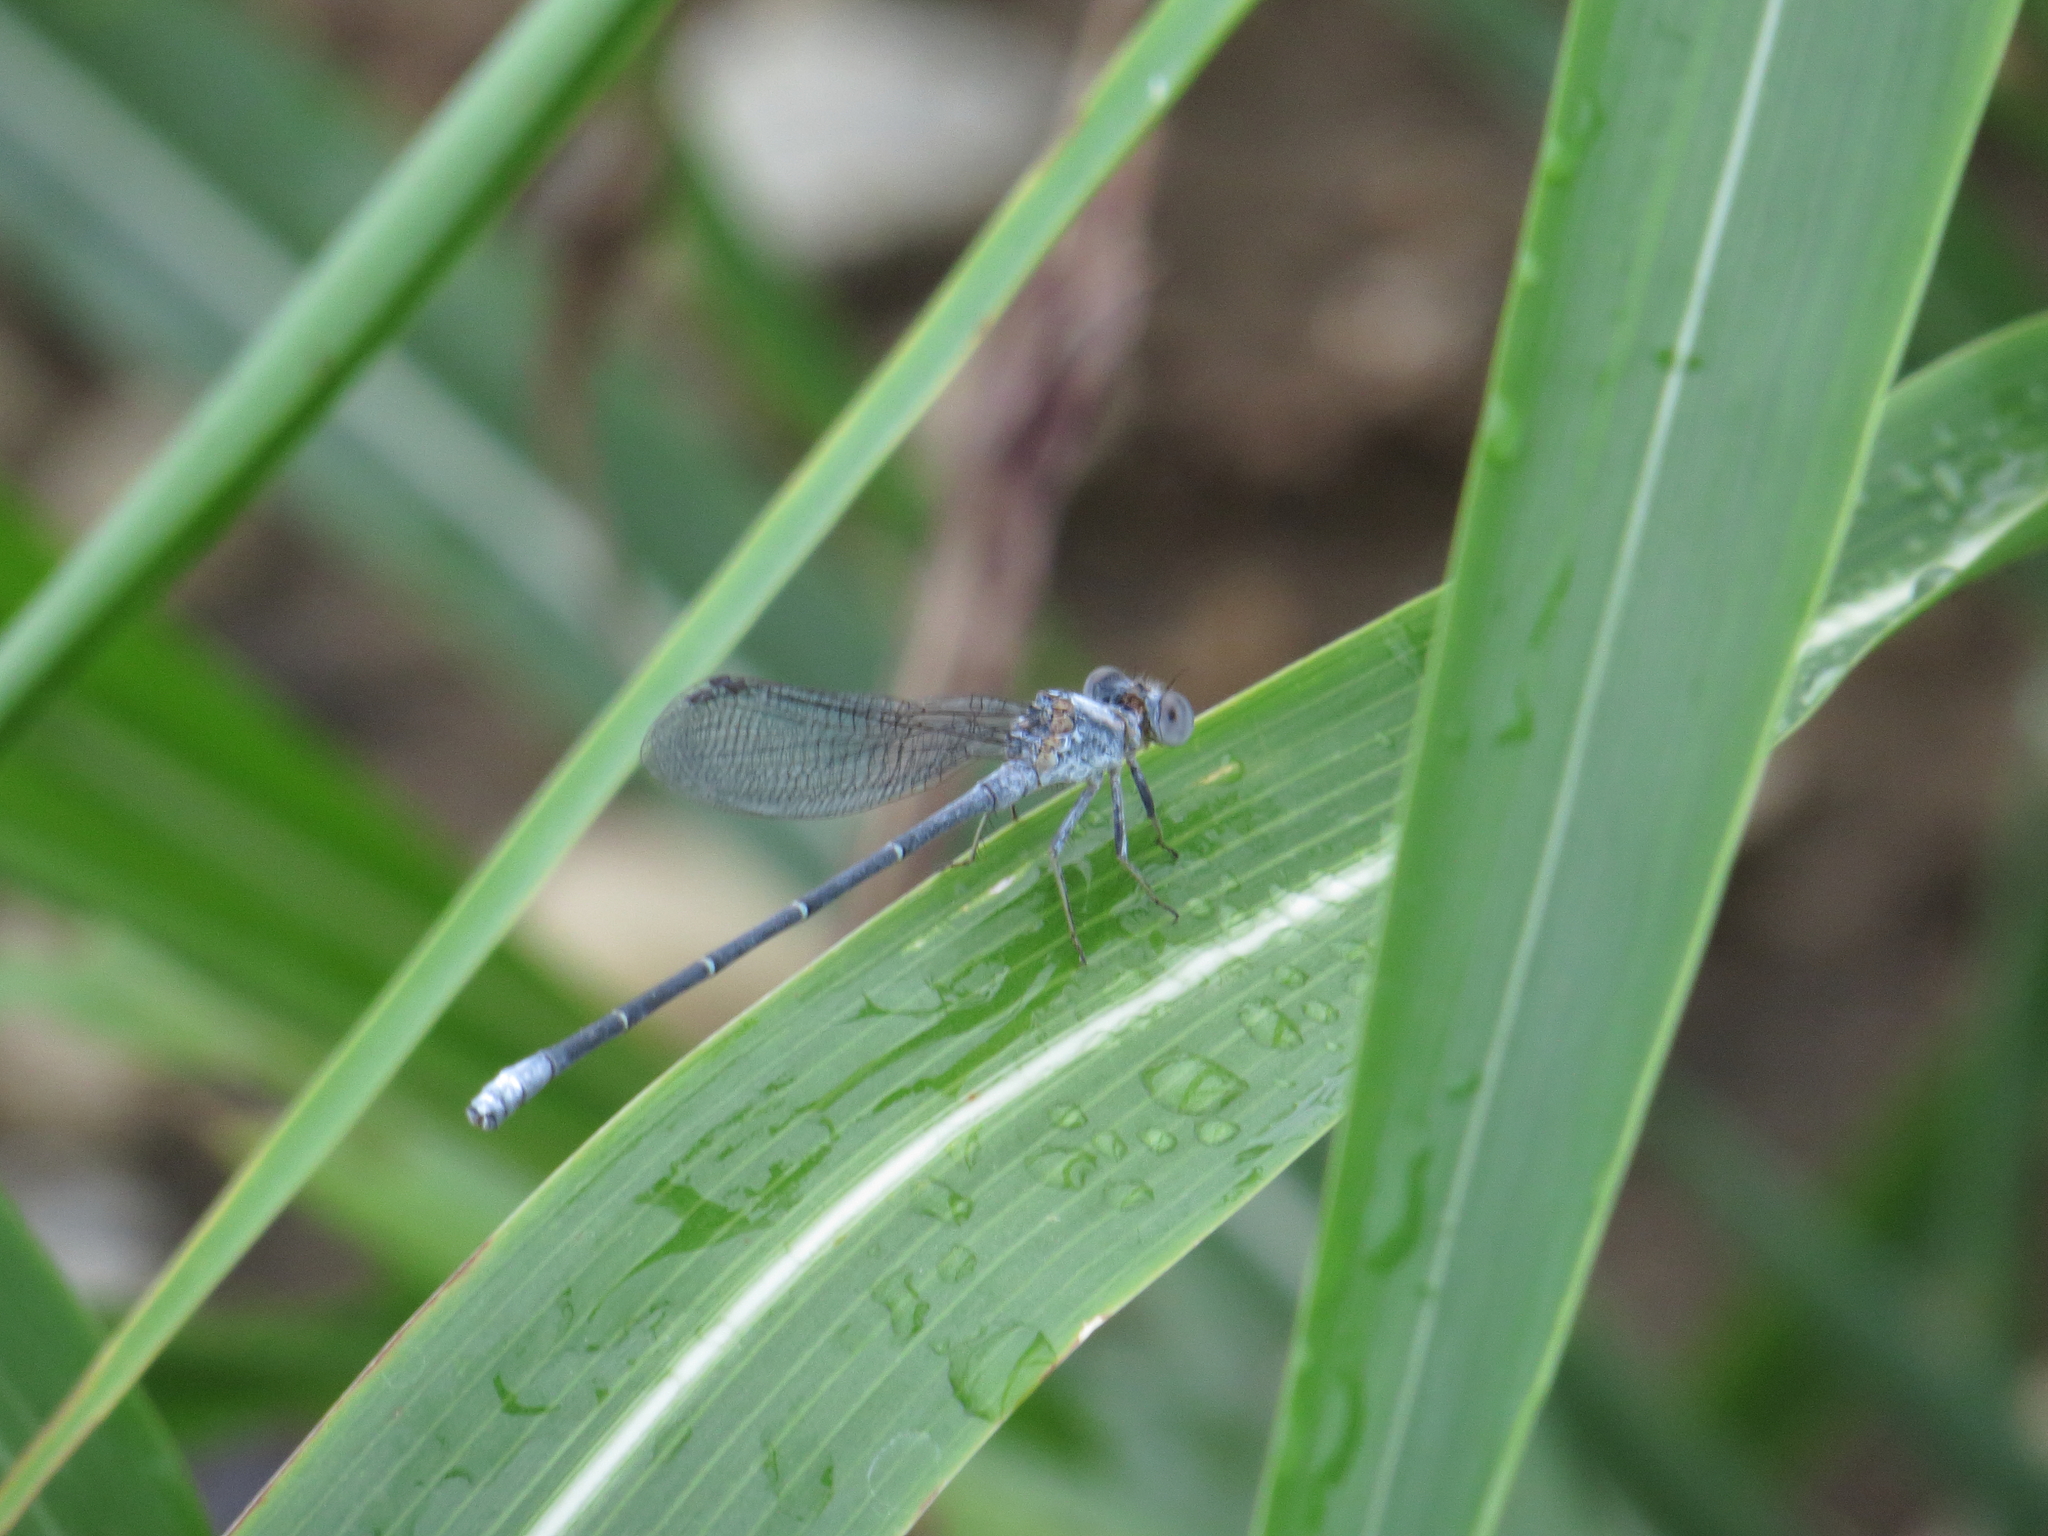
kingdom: Animalia
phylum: Arthropoda
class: Insecta
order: Odonata
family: Coenagrionidae
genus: Argia
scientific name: Argia moesta
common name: Powdered dancer
